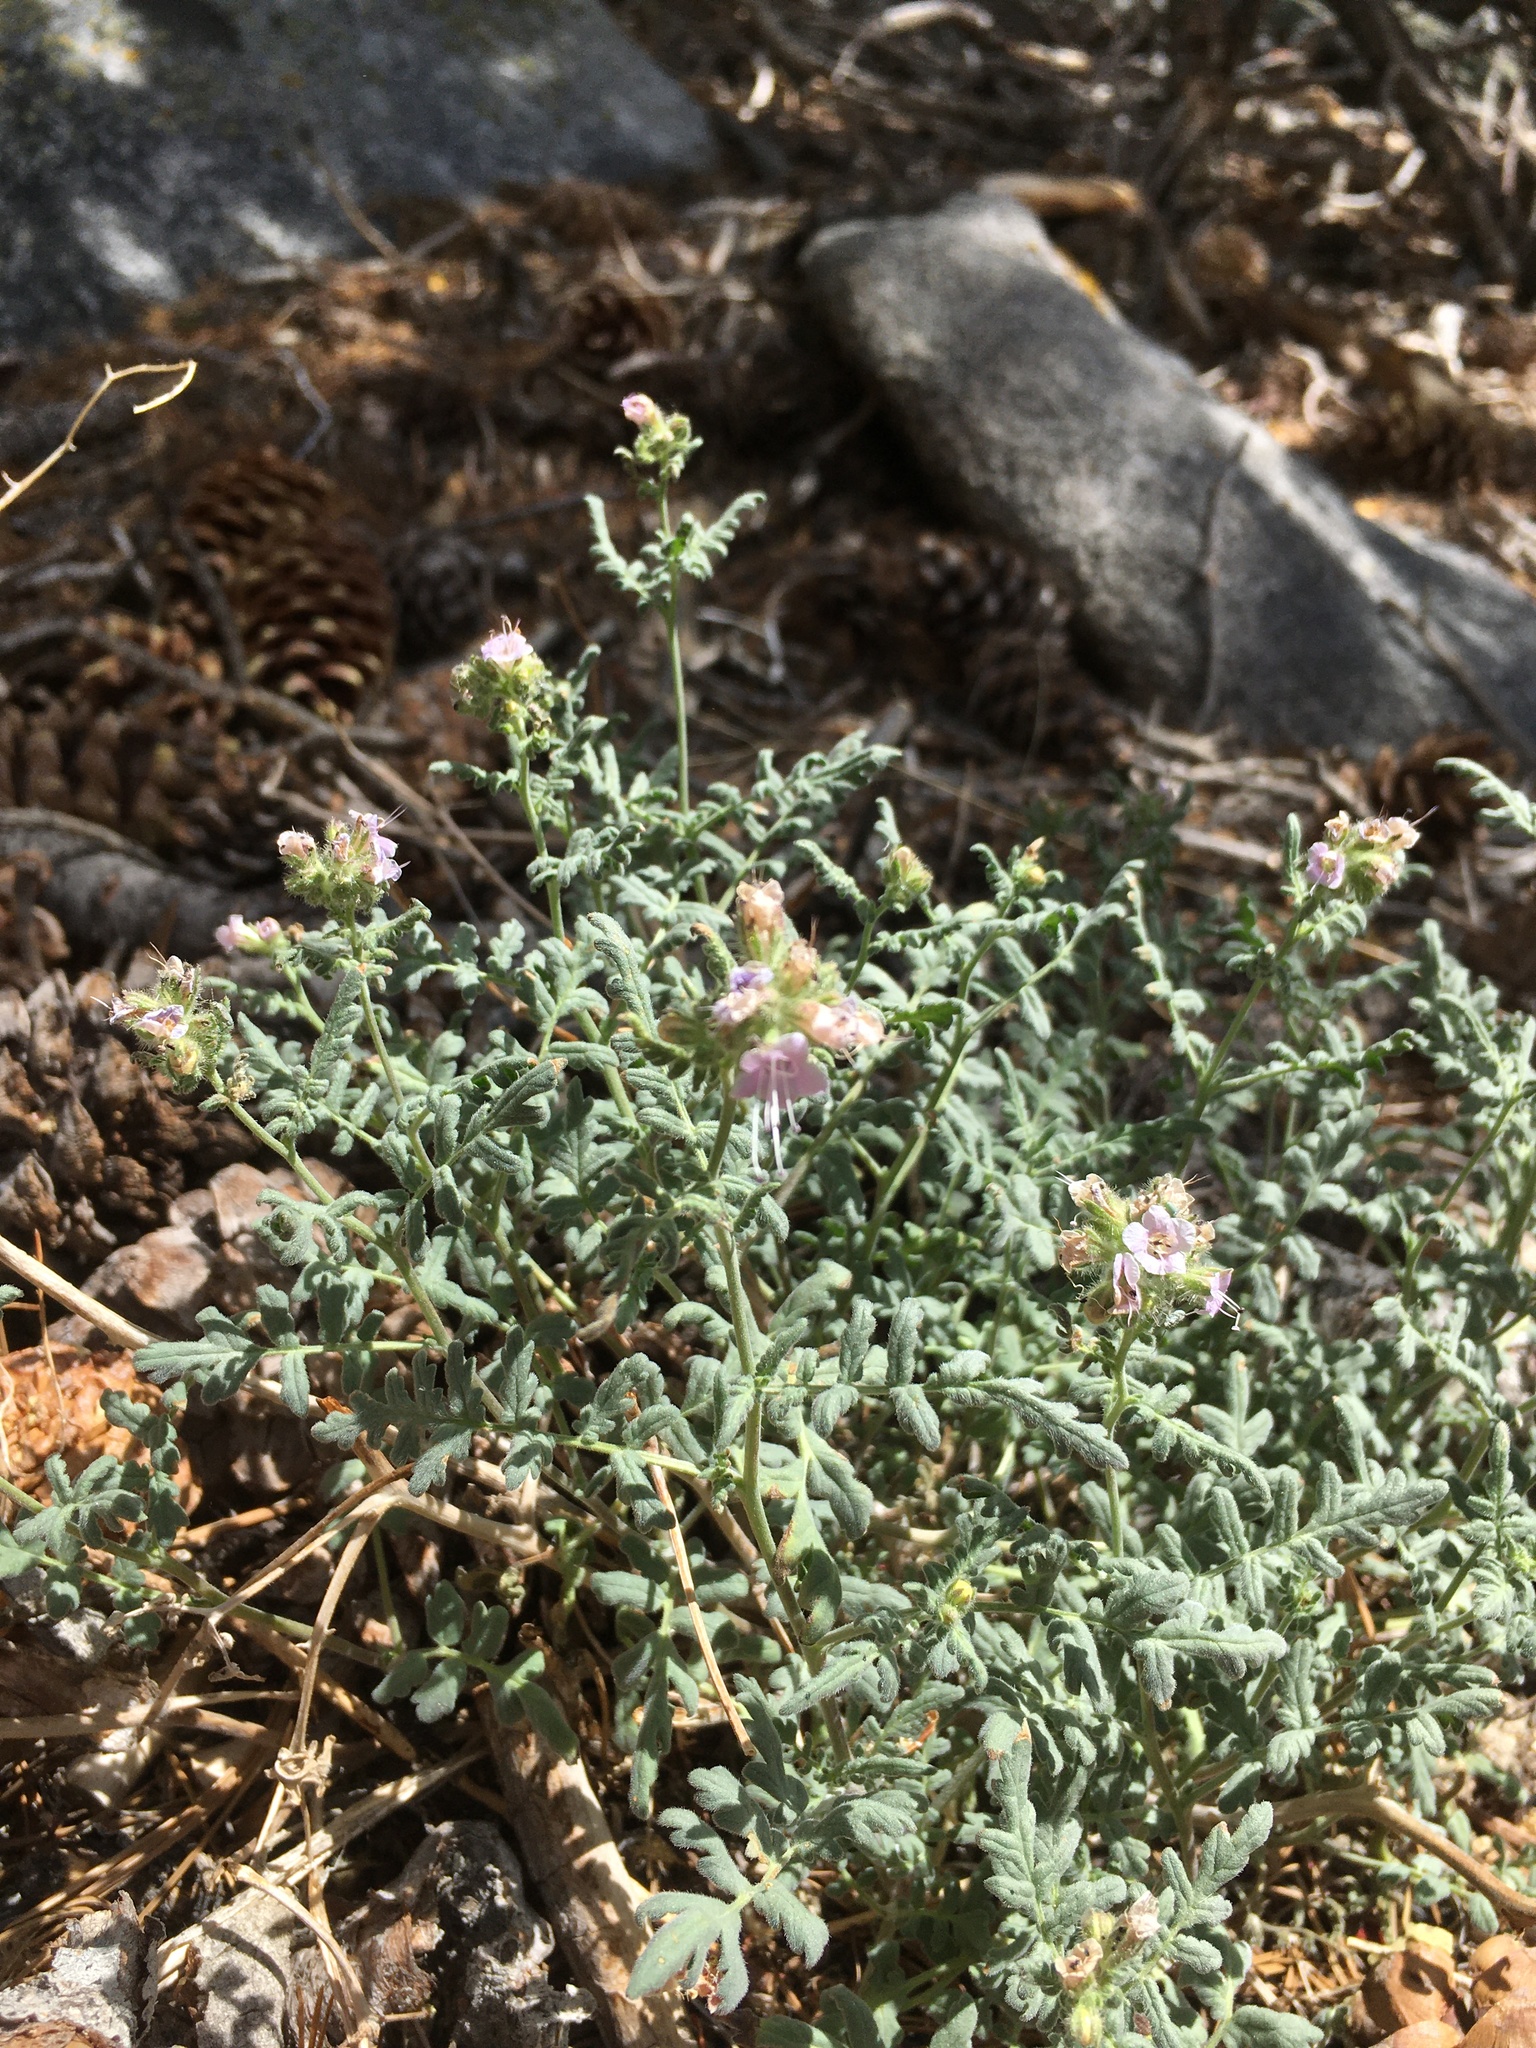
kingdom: Plantae
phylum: Tracheophyta
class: Magnoliopsida
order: Boraginales
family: Hydrophyllaceae
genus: Phacelia
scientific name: Phacelia ramosissima
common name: Branching phacelia
